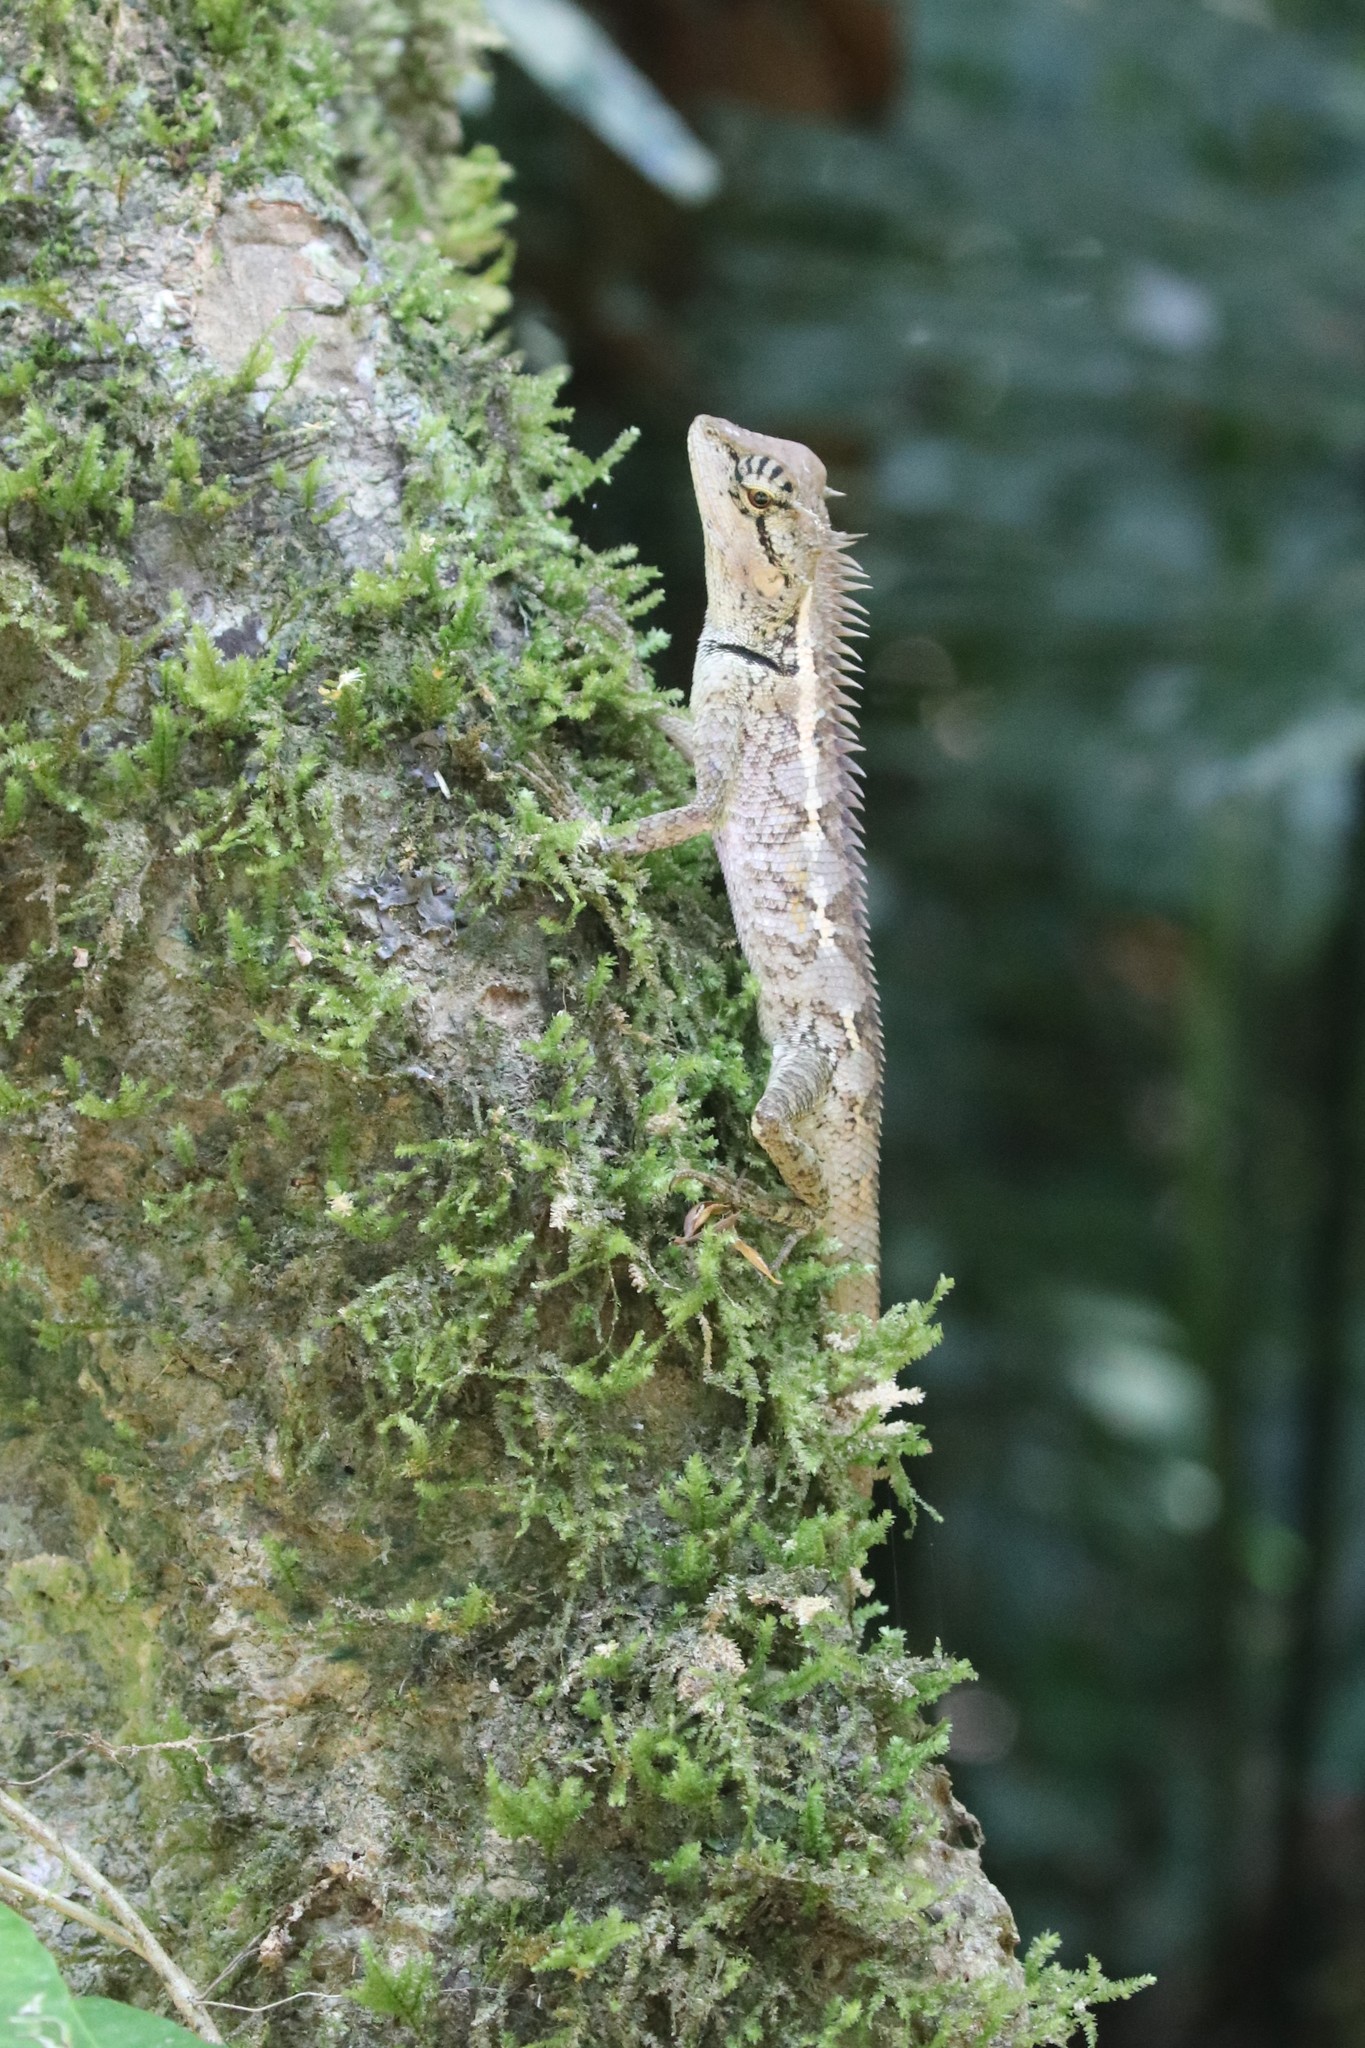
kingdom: Animalia
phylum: Chordata
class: Squamata
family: Agamidae
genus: Calotes
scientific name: Calotes emma
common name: Thailand bloodsucker
